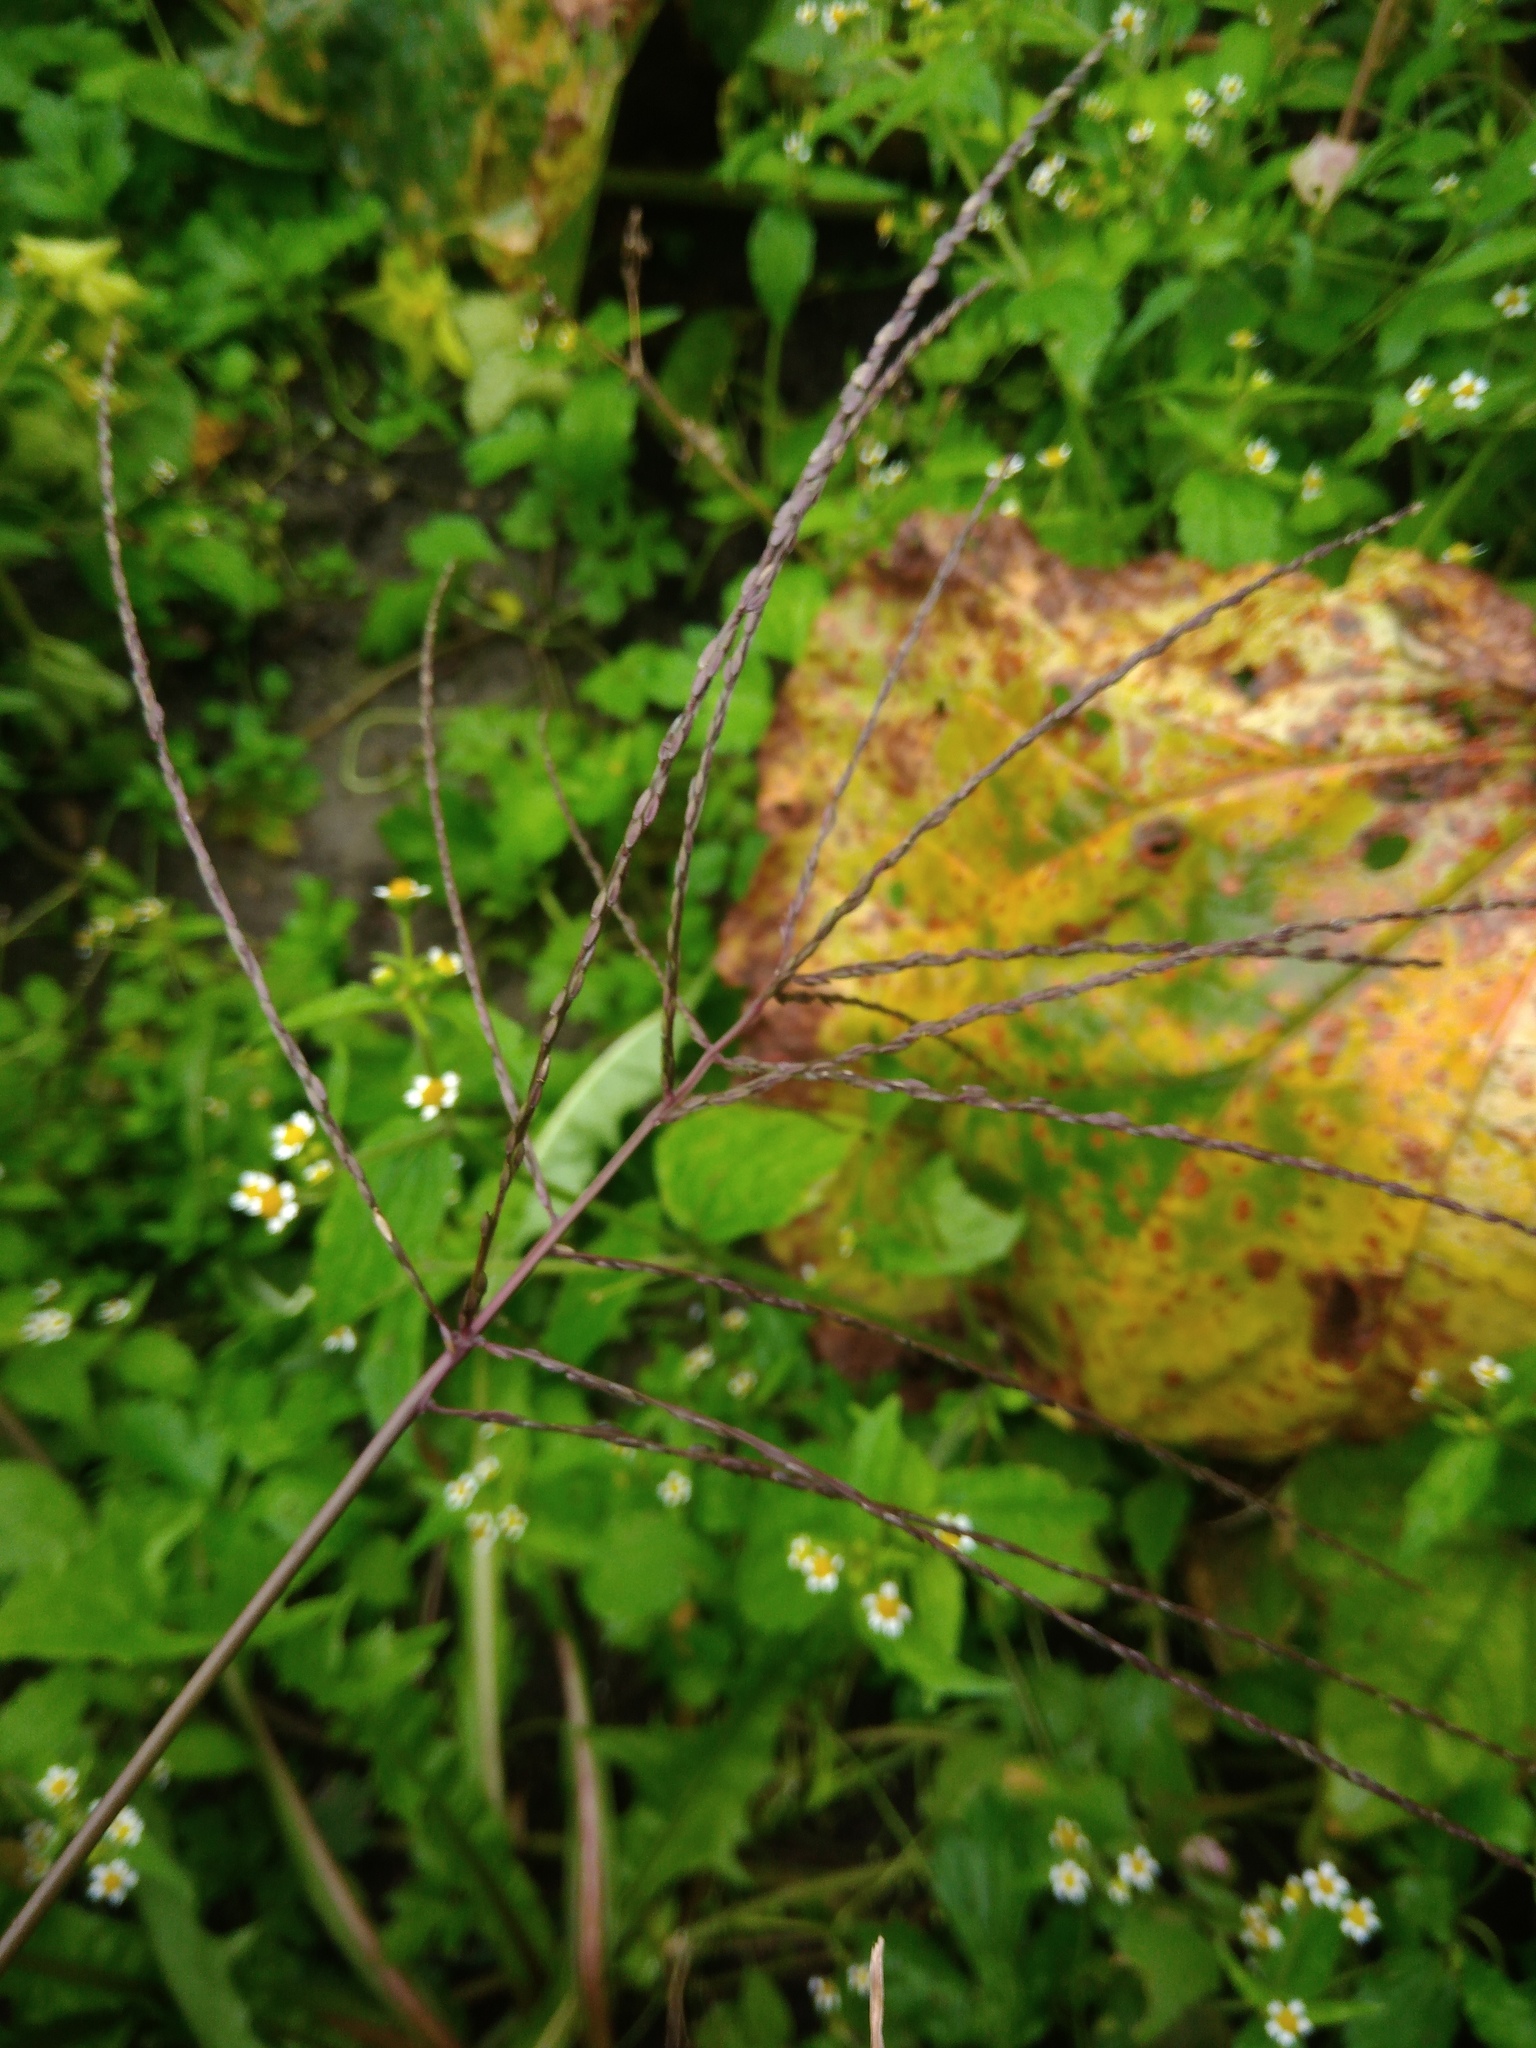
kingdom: Plantae
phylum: Tracheophyta
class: Liliopsida
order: Poales
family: Poaceae
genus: Digitaria
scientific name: Digitaria sanguinalis
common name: Hairy crabgrass
